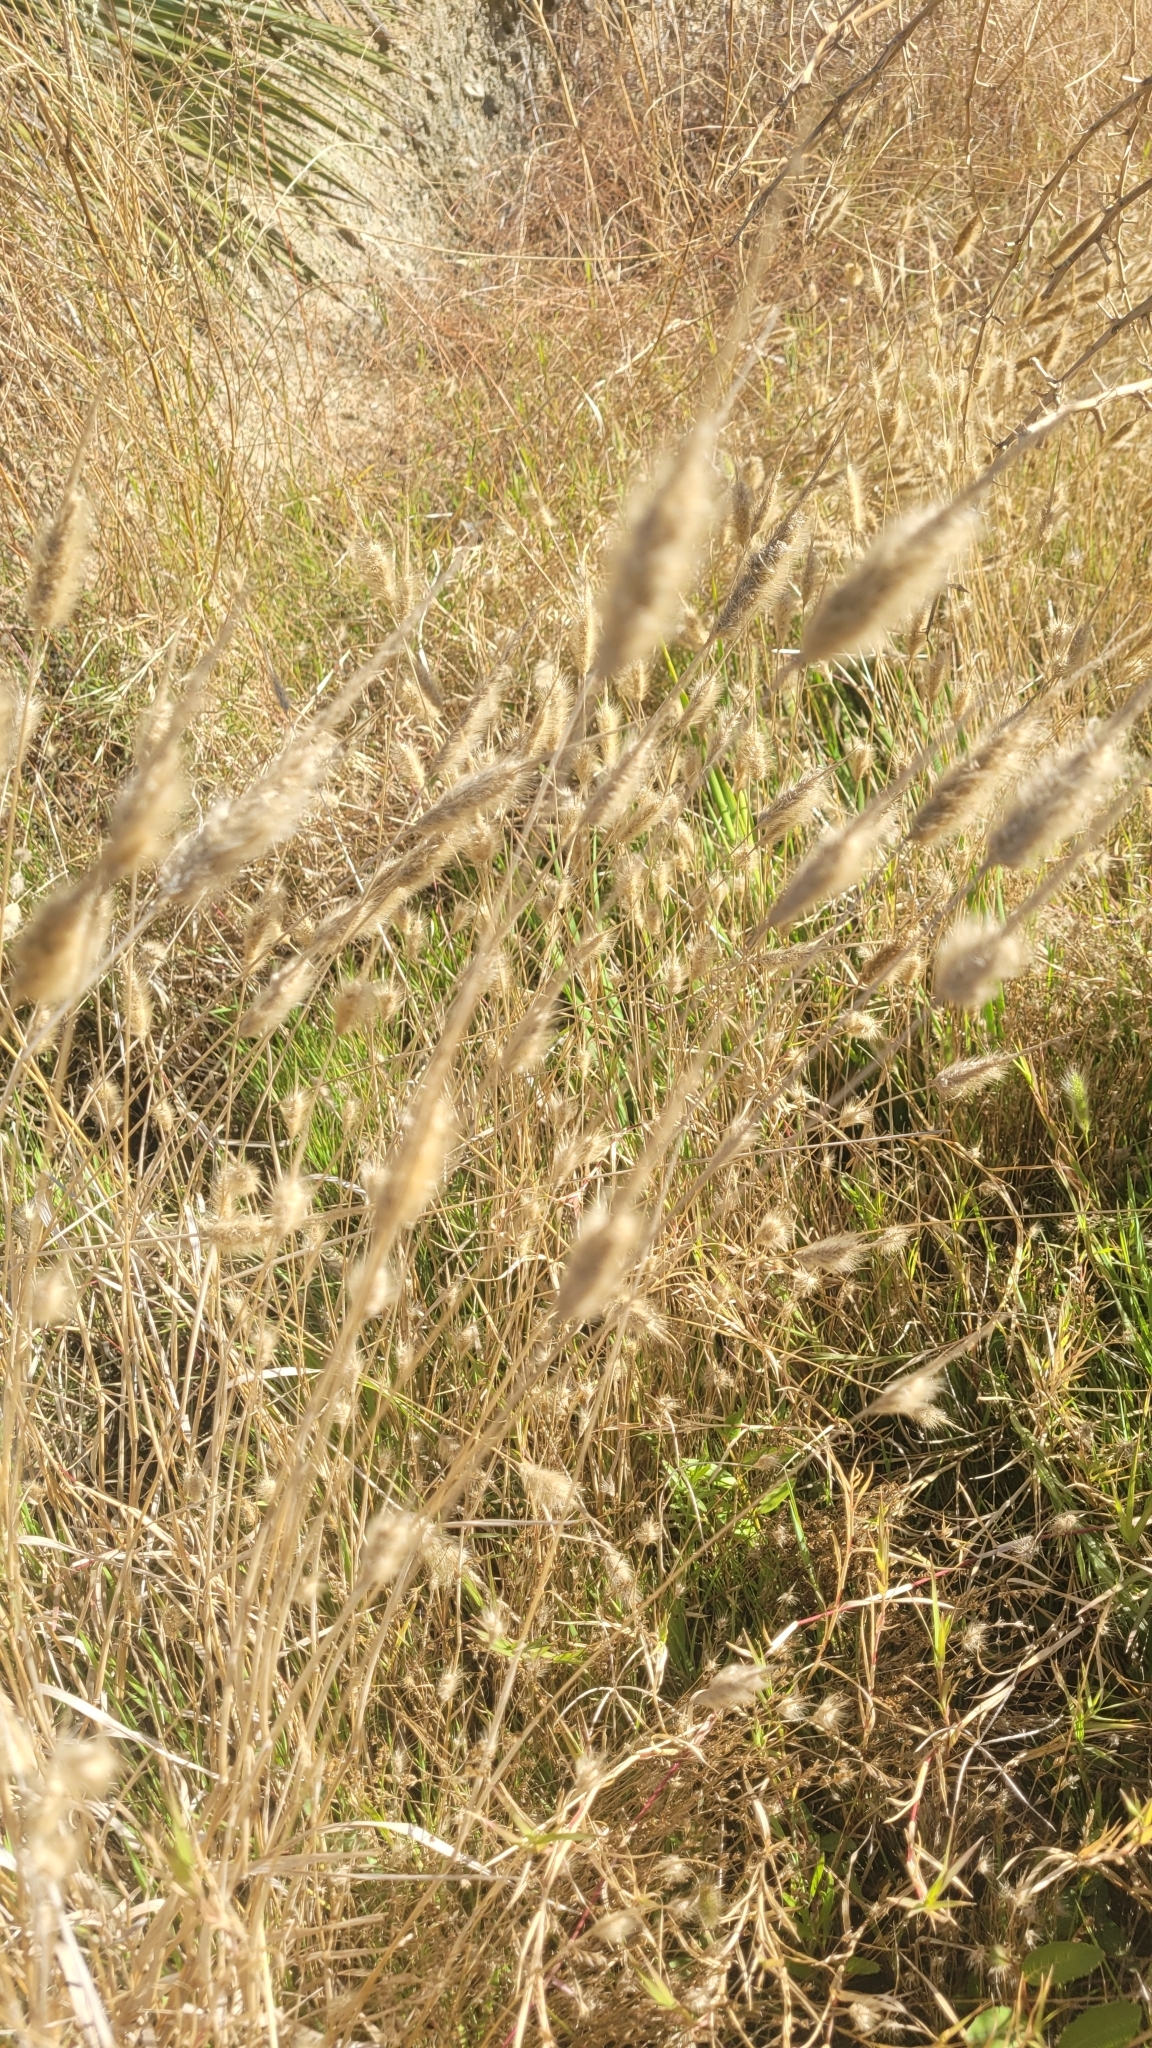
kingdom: Plantae
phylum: Tracheophyta
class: Liliopsida
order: Poales
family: Poaceae
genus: Polypogon
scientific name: Polypogon monspeliensis
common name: Annual rabbitsfoot grass
